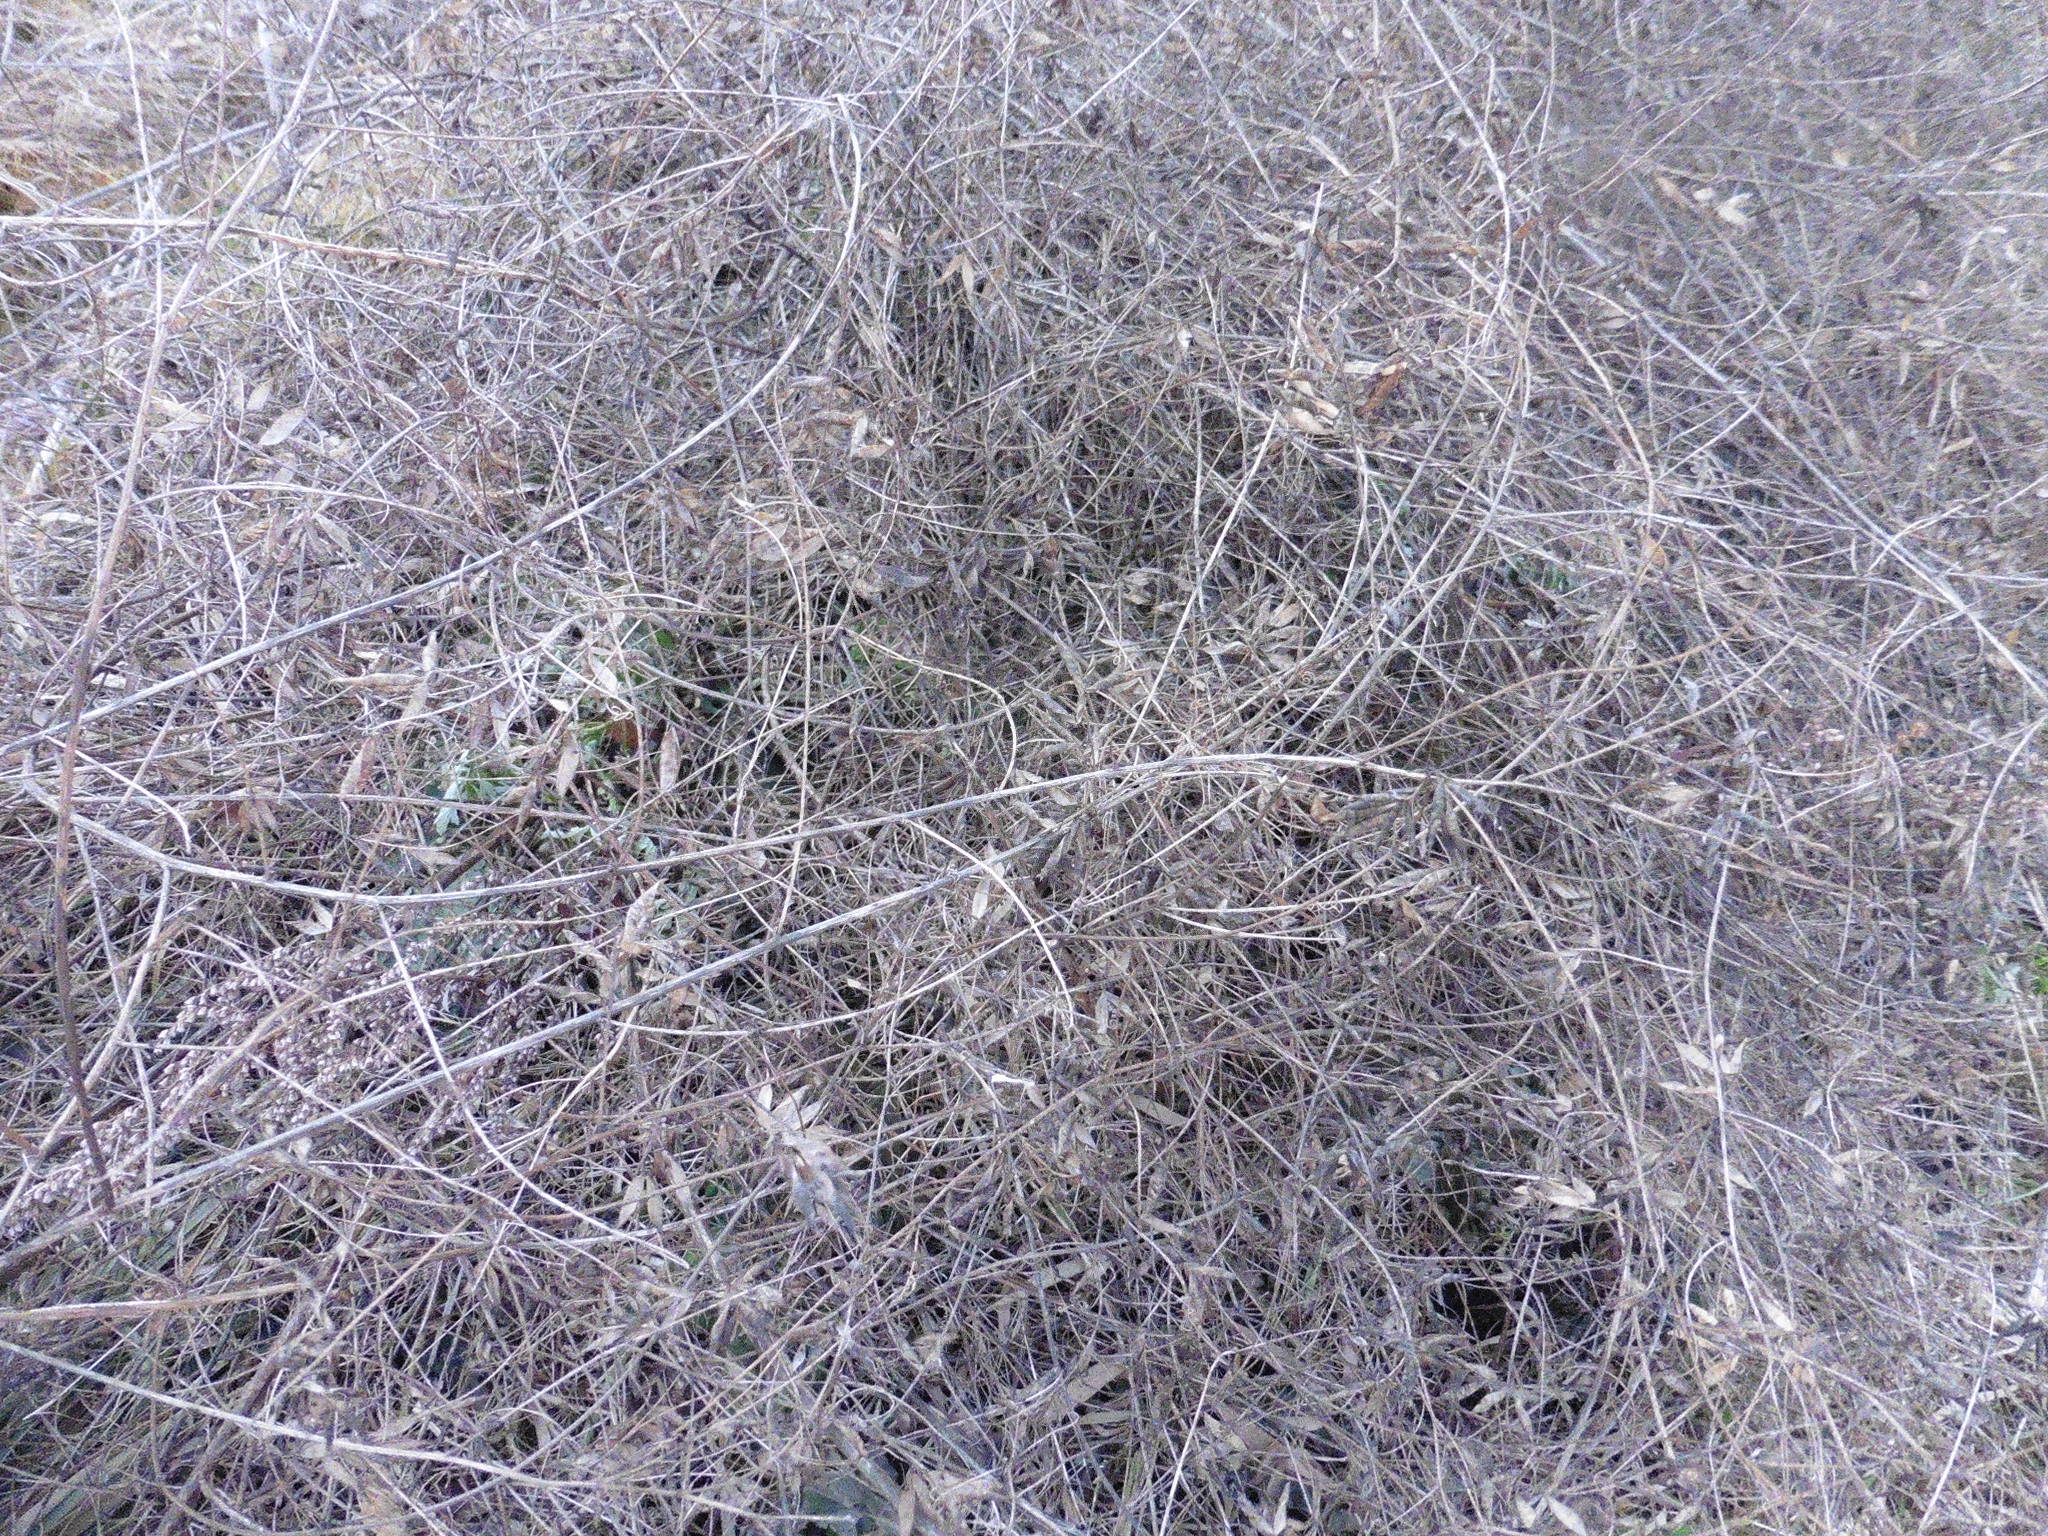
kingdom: Plantae
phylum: Tracheophyta
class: Magnoliopsida
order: Fabales
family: Fabaceae
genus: Vicia
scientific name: Vicia biennis
